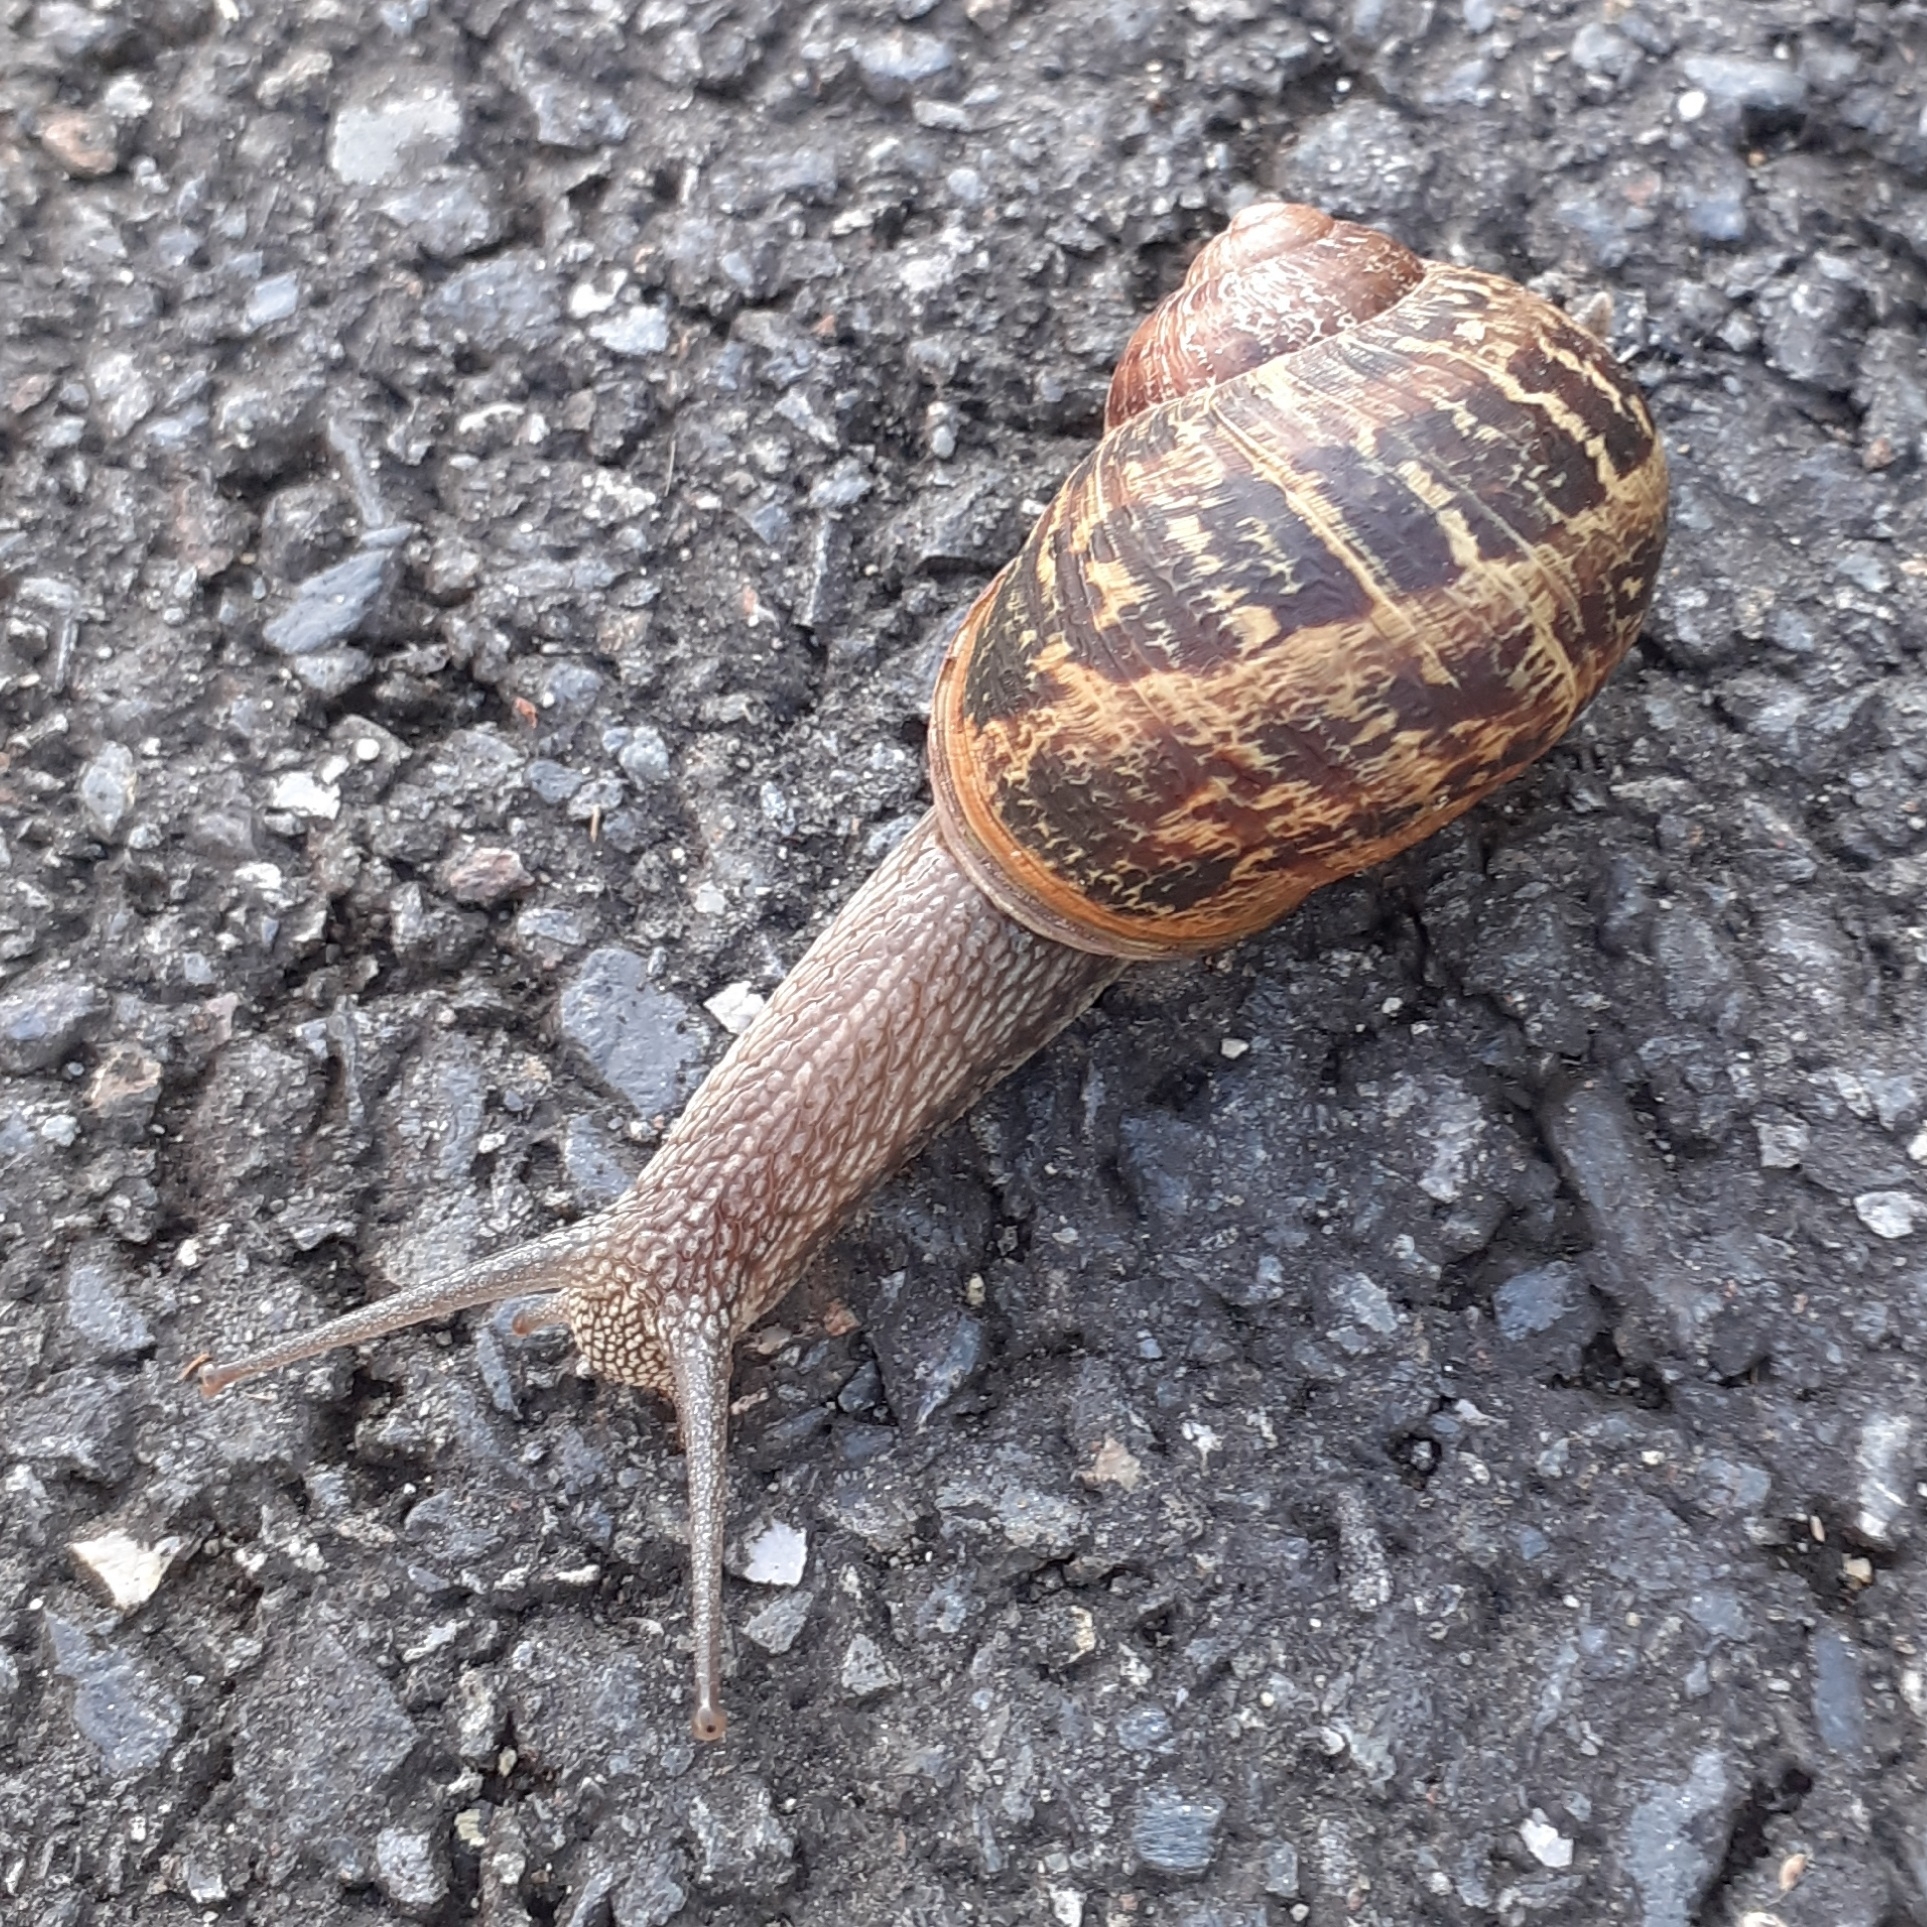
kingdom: Animalia
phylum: Mollusca
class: Gastropoda
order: Stylommatophora
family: Helicidae
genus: Cornu
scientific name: Cornu aspersum
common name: Brown garden snail
